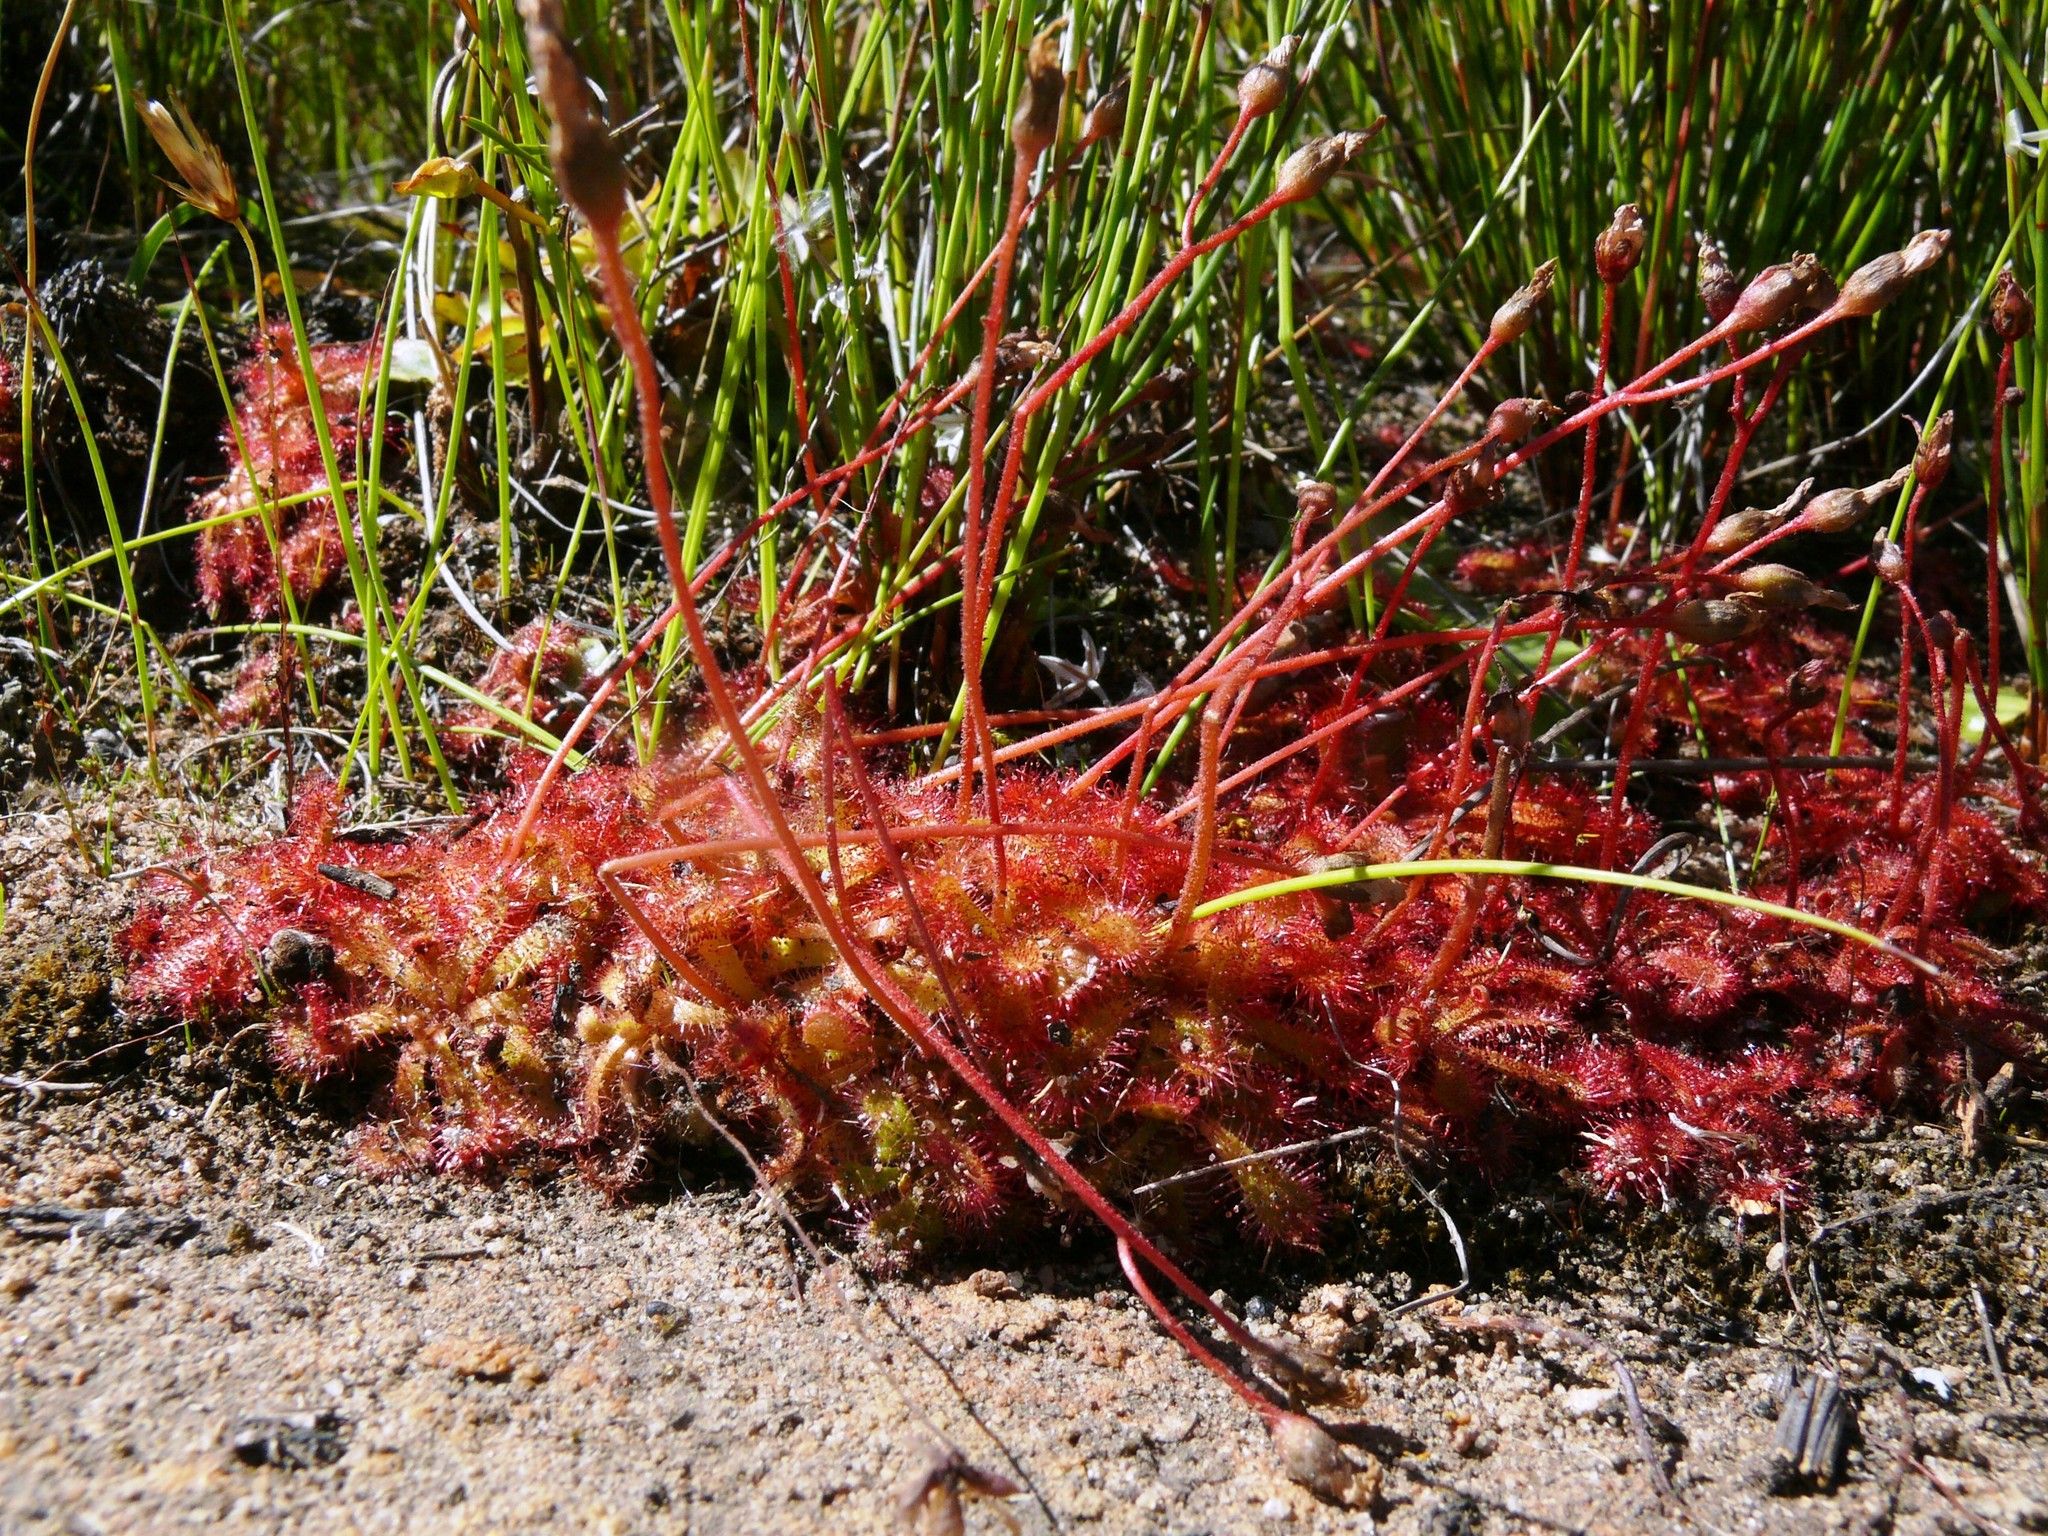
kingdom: Plantae
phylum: Tracheophyta
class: Magnoliopsida
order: Caryophyllales
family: Droseraceae
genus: Drosera
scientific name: Drosera trinervia
